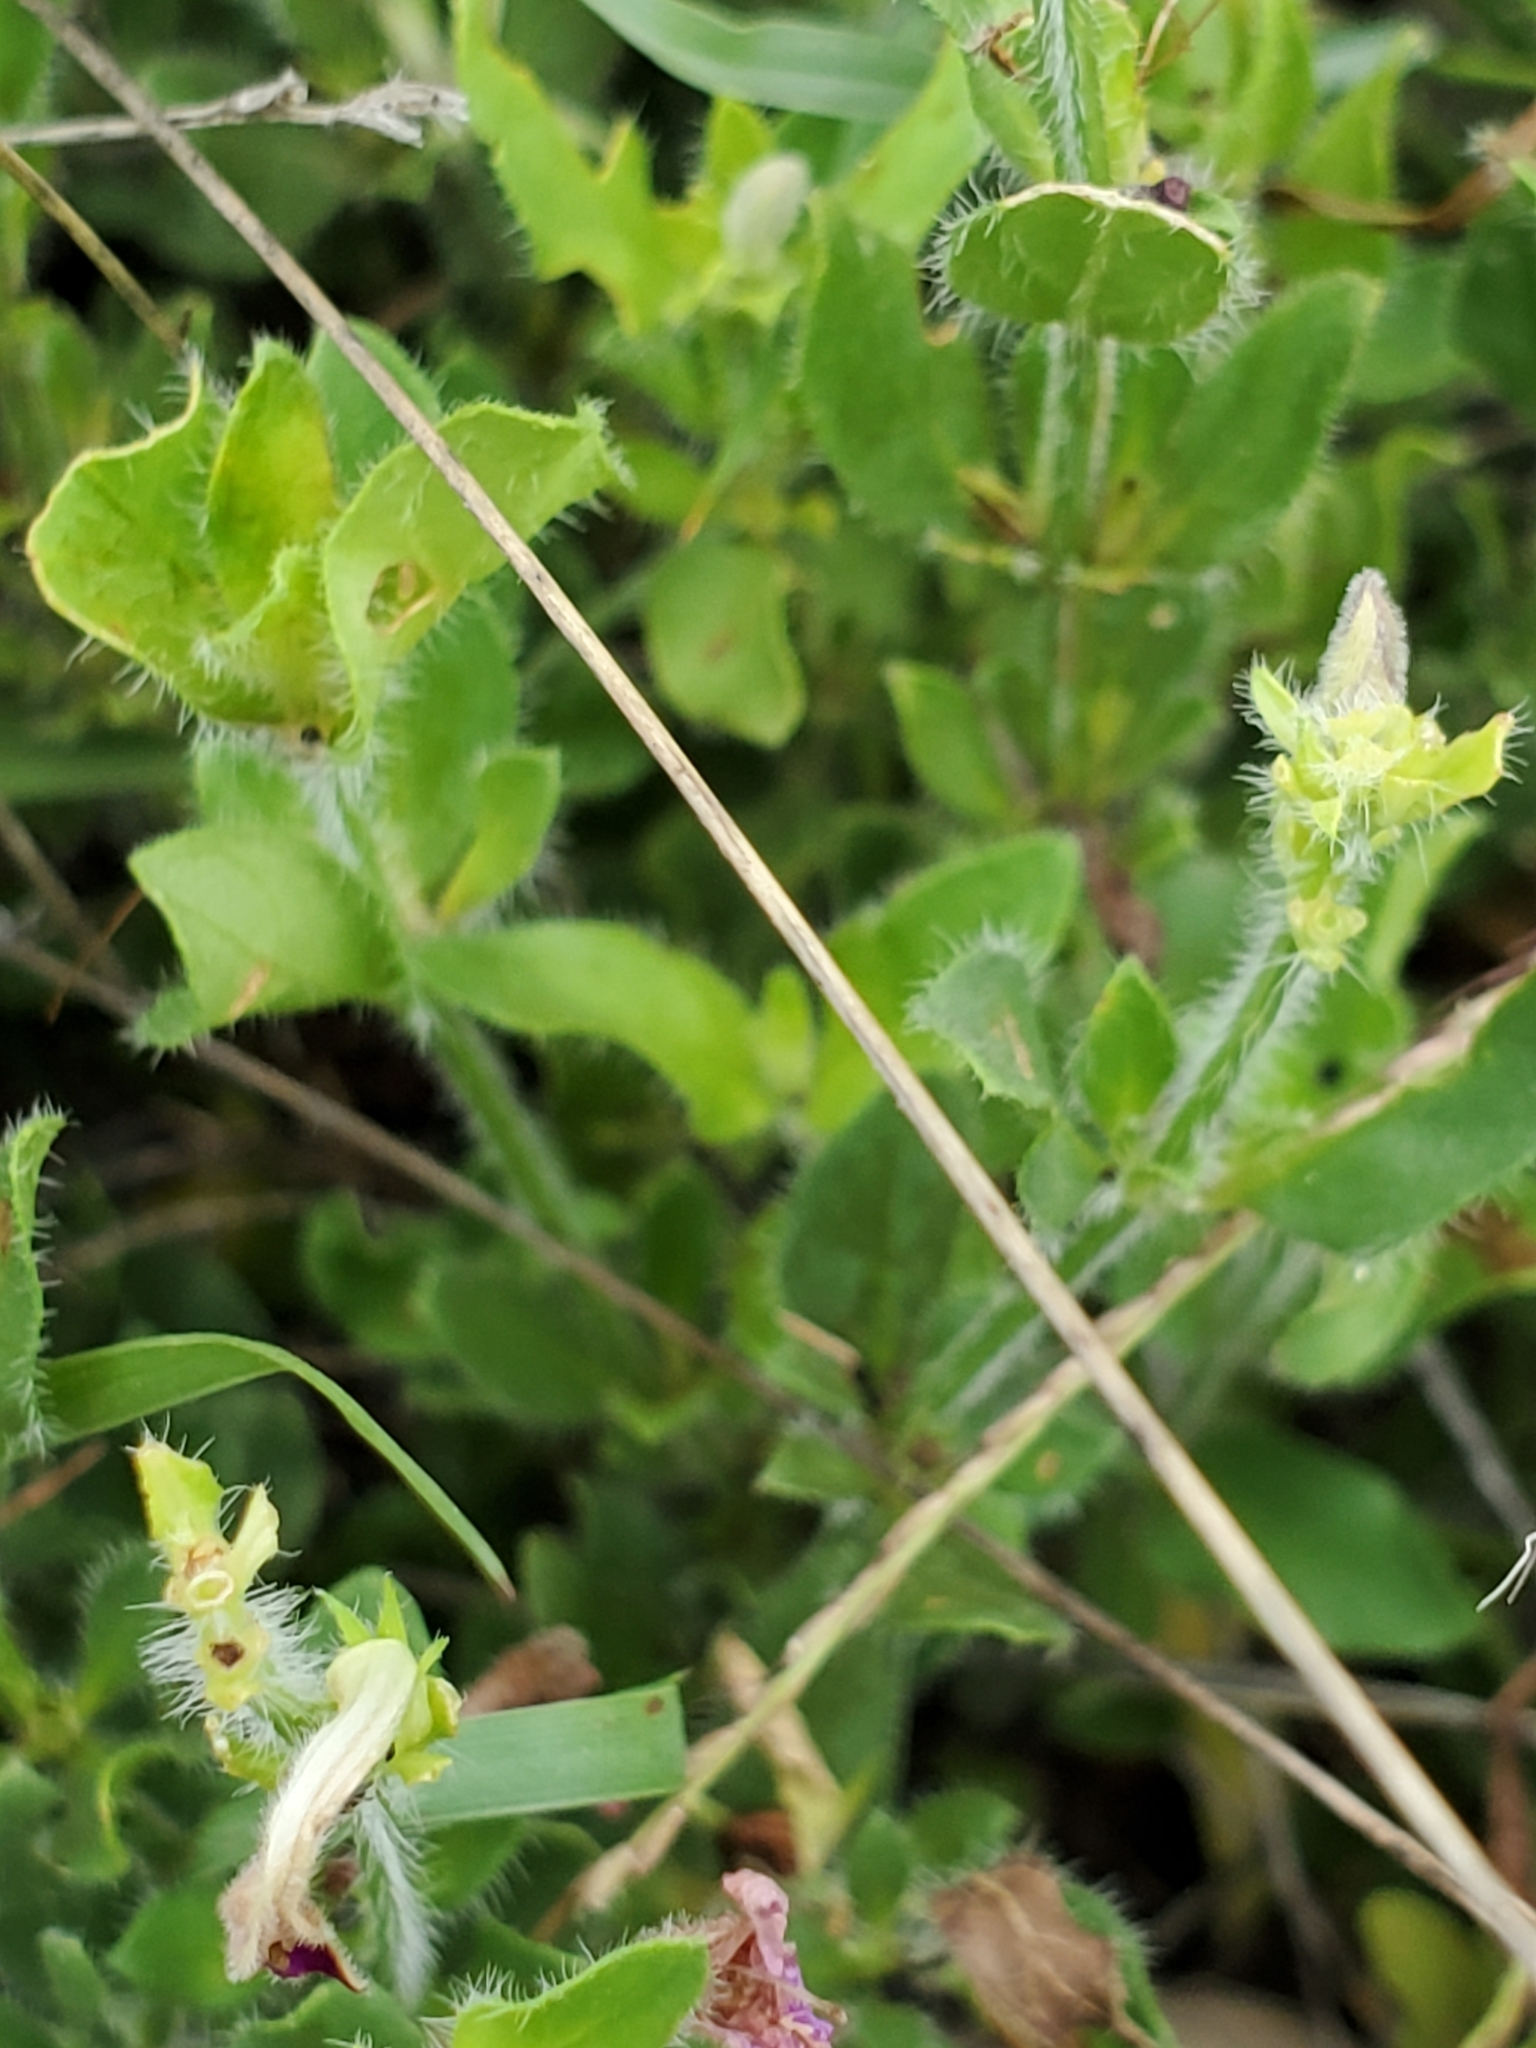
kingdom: Plantae
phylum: Tracheophyta
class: Magnoliopsida
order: Lamiales
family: Acanthaceae
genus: Justicia
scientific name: Justicia pilosella
